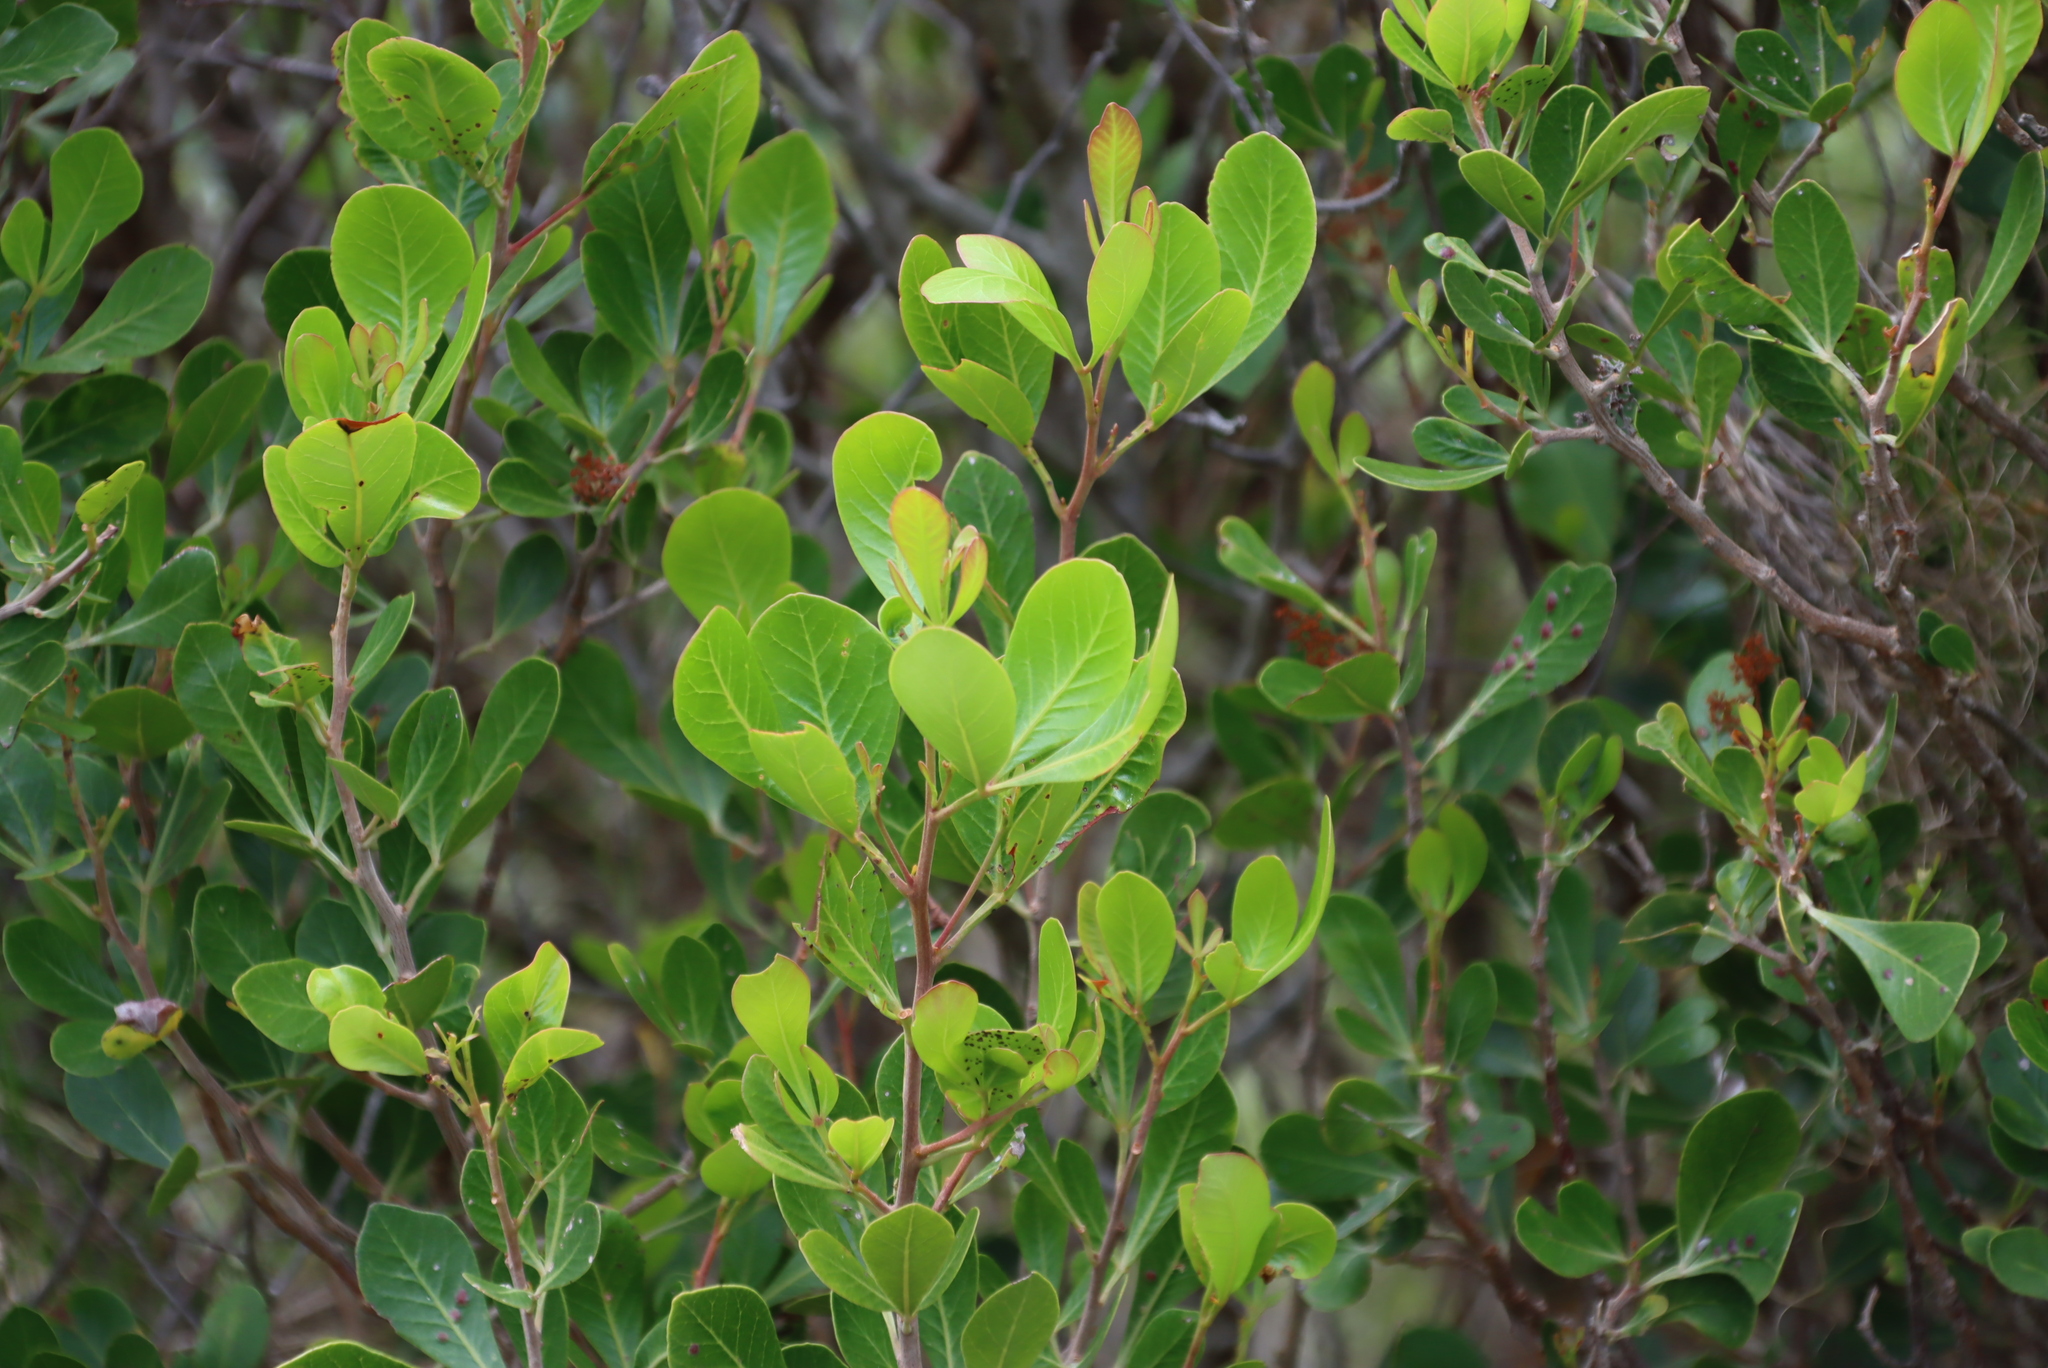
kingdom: Plantae
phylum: Tracheophyta
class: Magnoliopsida
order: Sapindales
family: Anacardiaceae
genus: Searsia
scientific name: Searsia lucida
